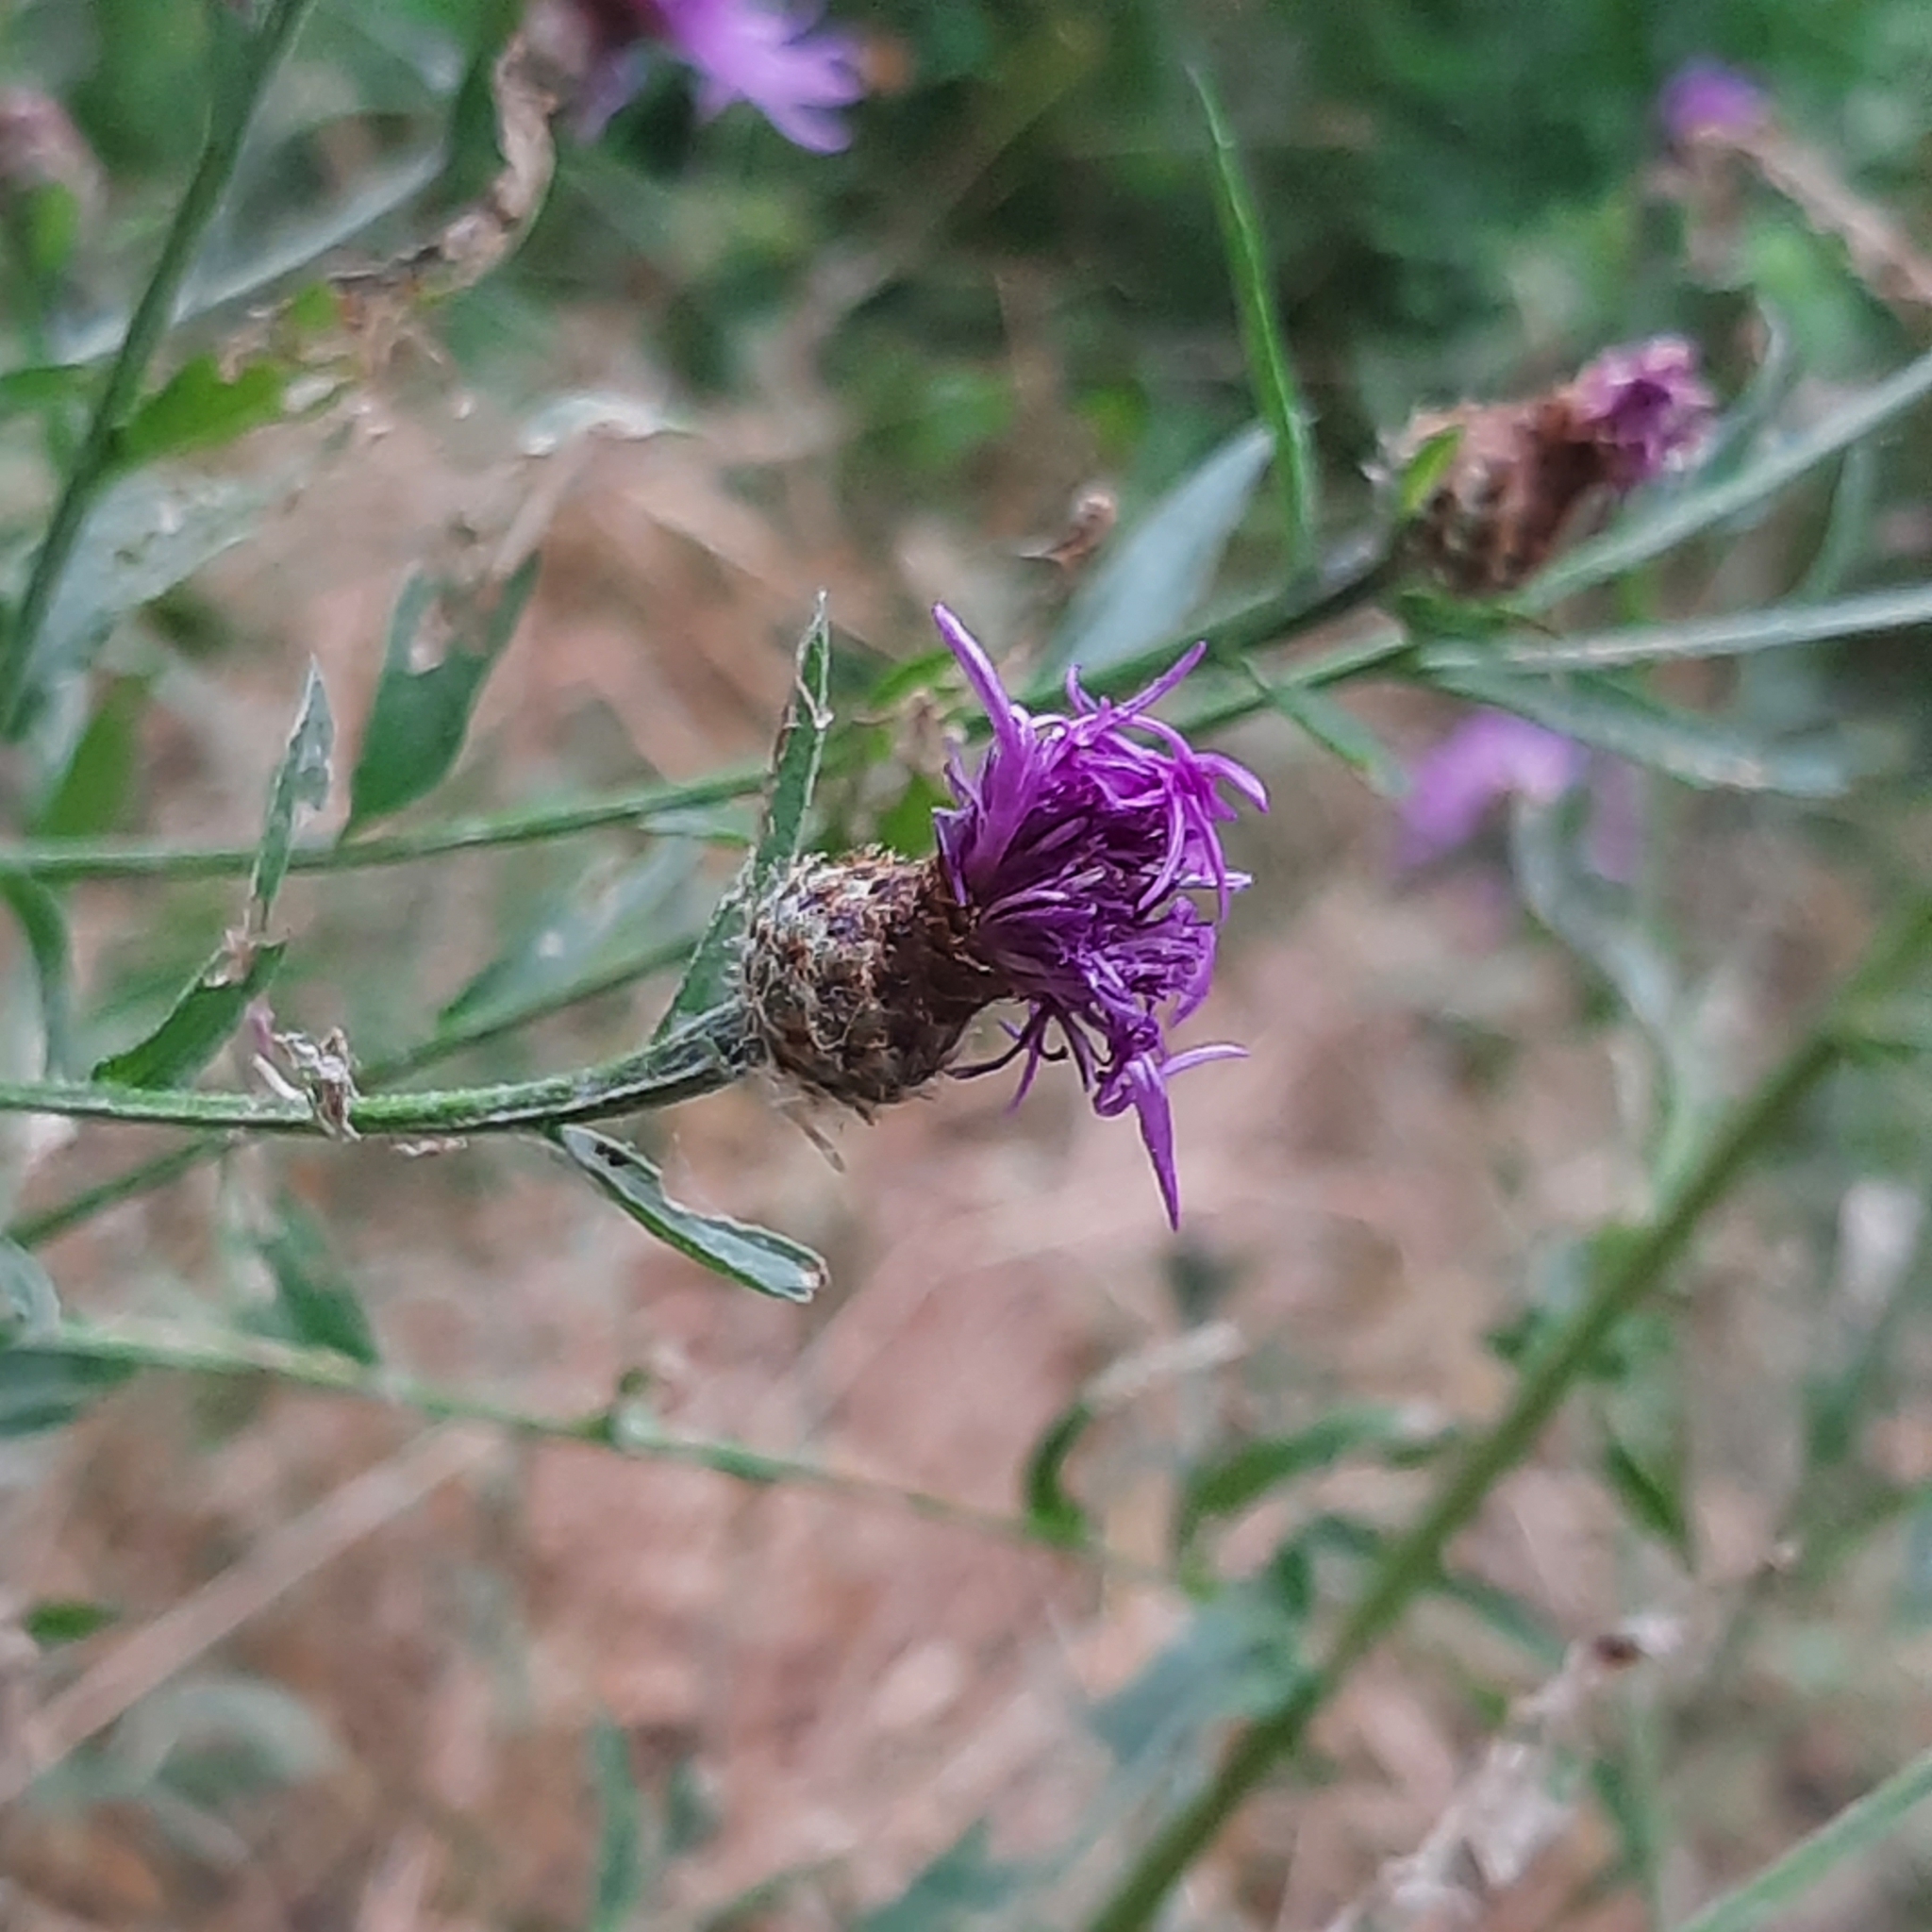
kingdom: Plantae
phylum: Tracheophyta
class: Magnoliopsida
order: Asterales
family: Asteraceae
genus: Centaurea
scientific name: Centaurea
